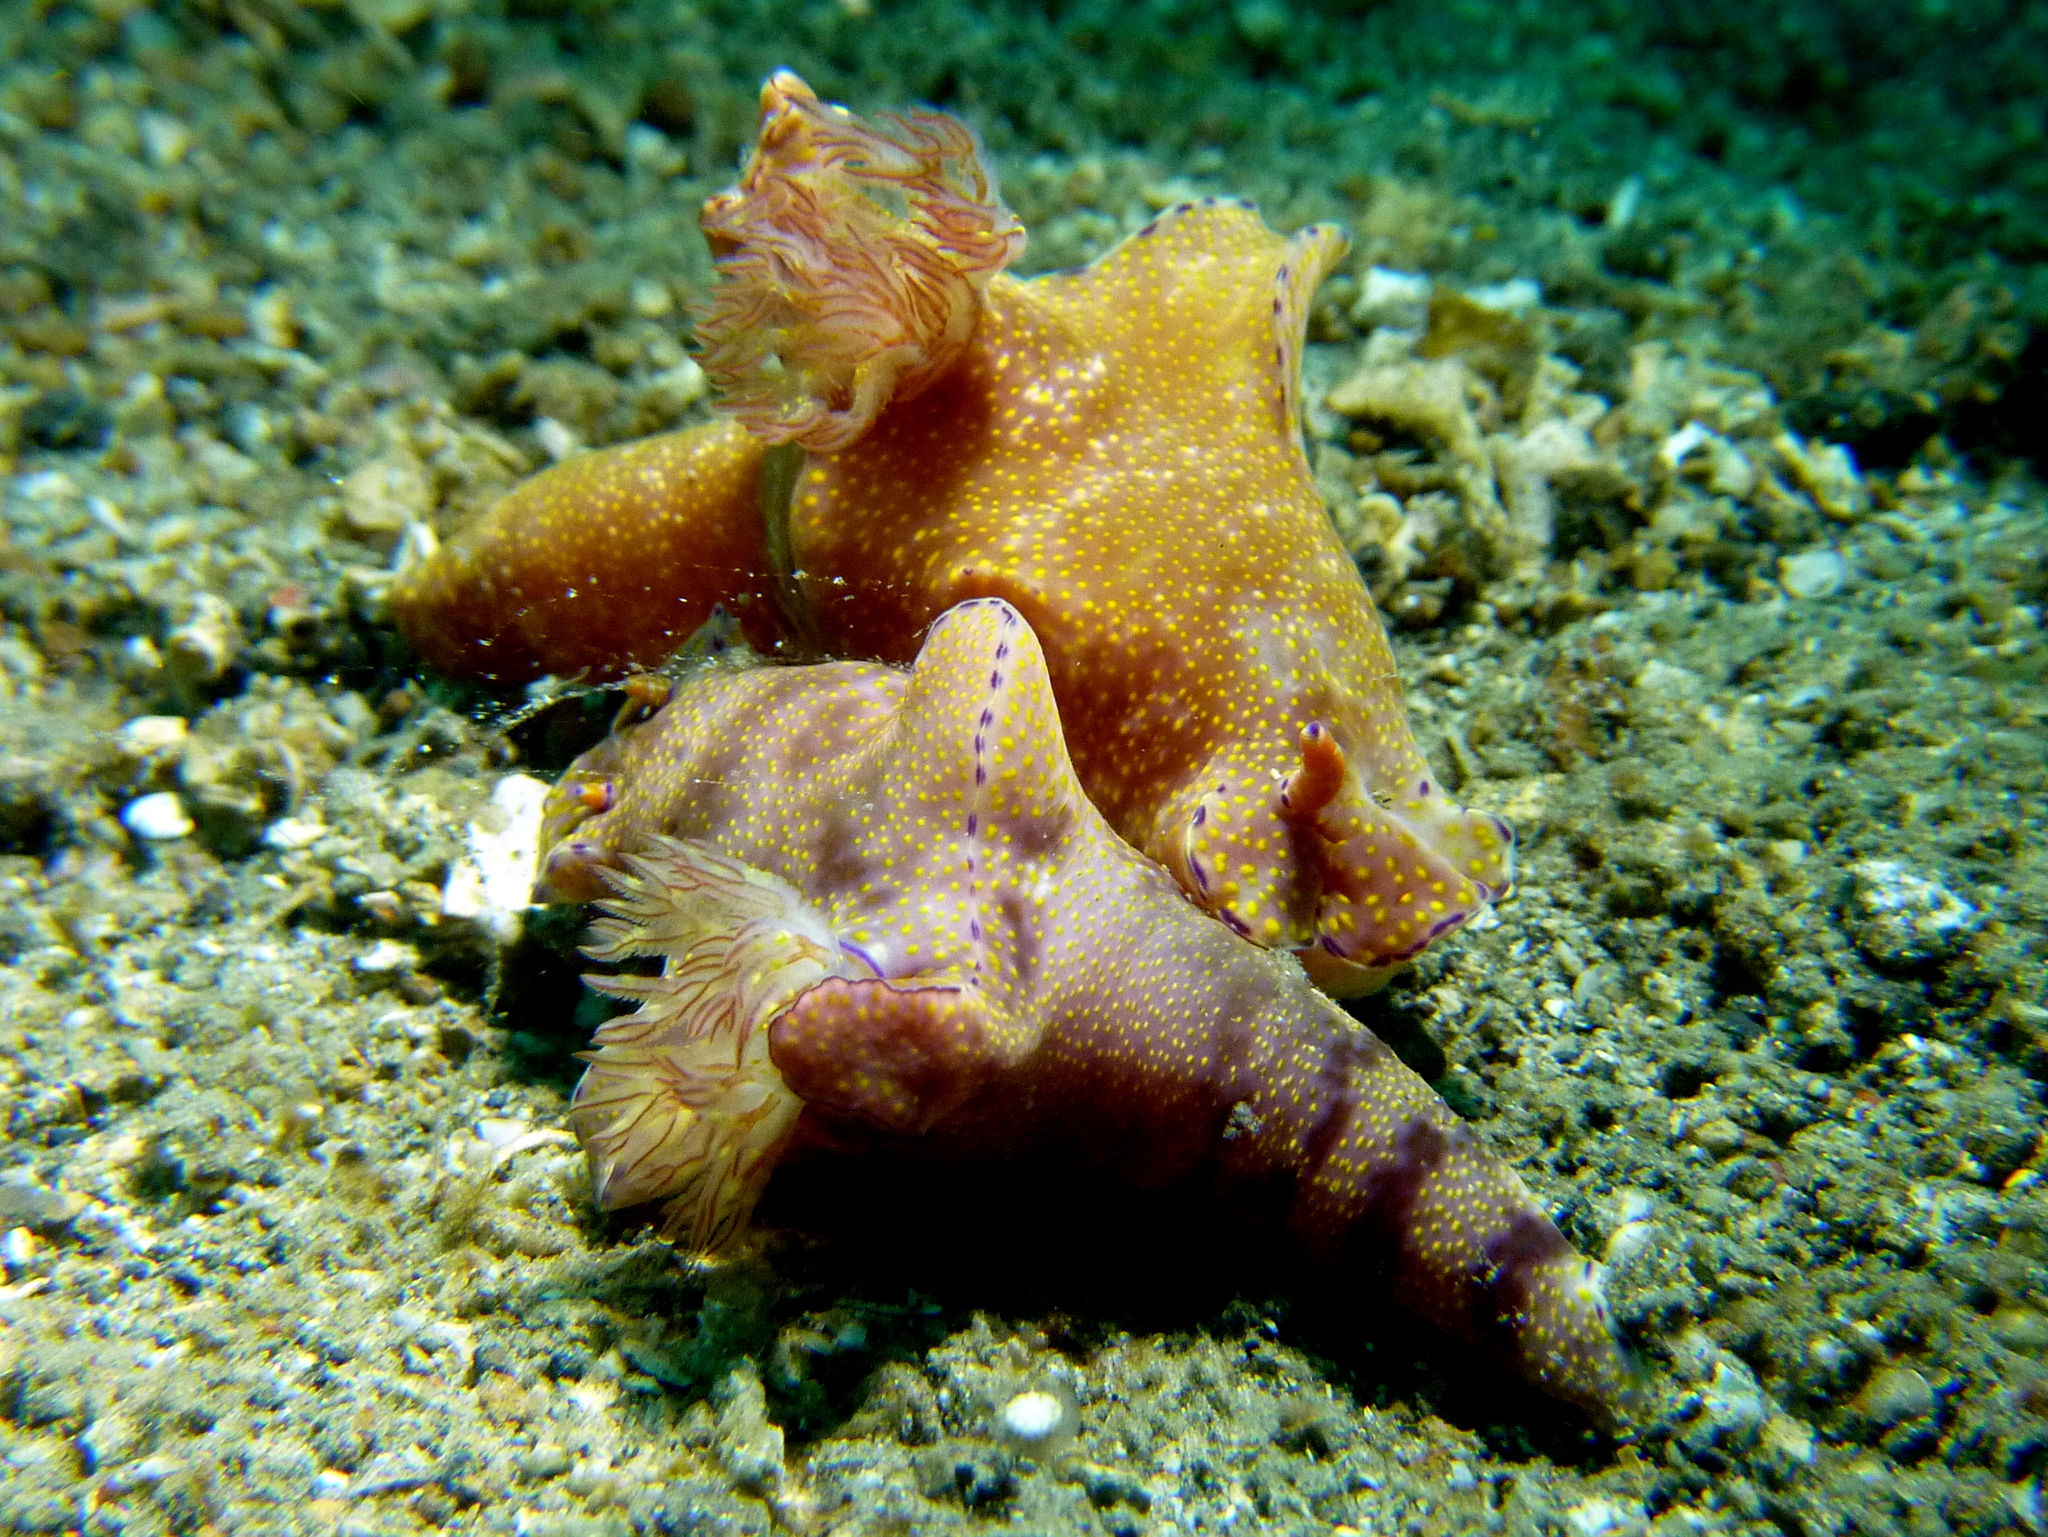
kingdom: Animalia
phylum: Mollusca
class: Gastropoda
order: Nudibranchia
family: Chromodorididae
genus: Ceratosoma
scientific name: Ceratosoma gracillimum
